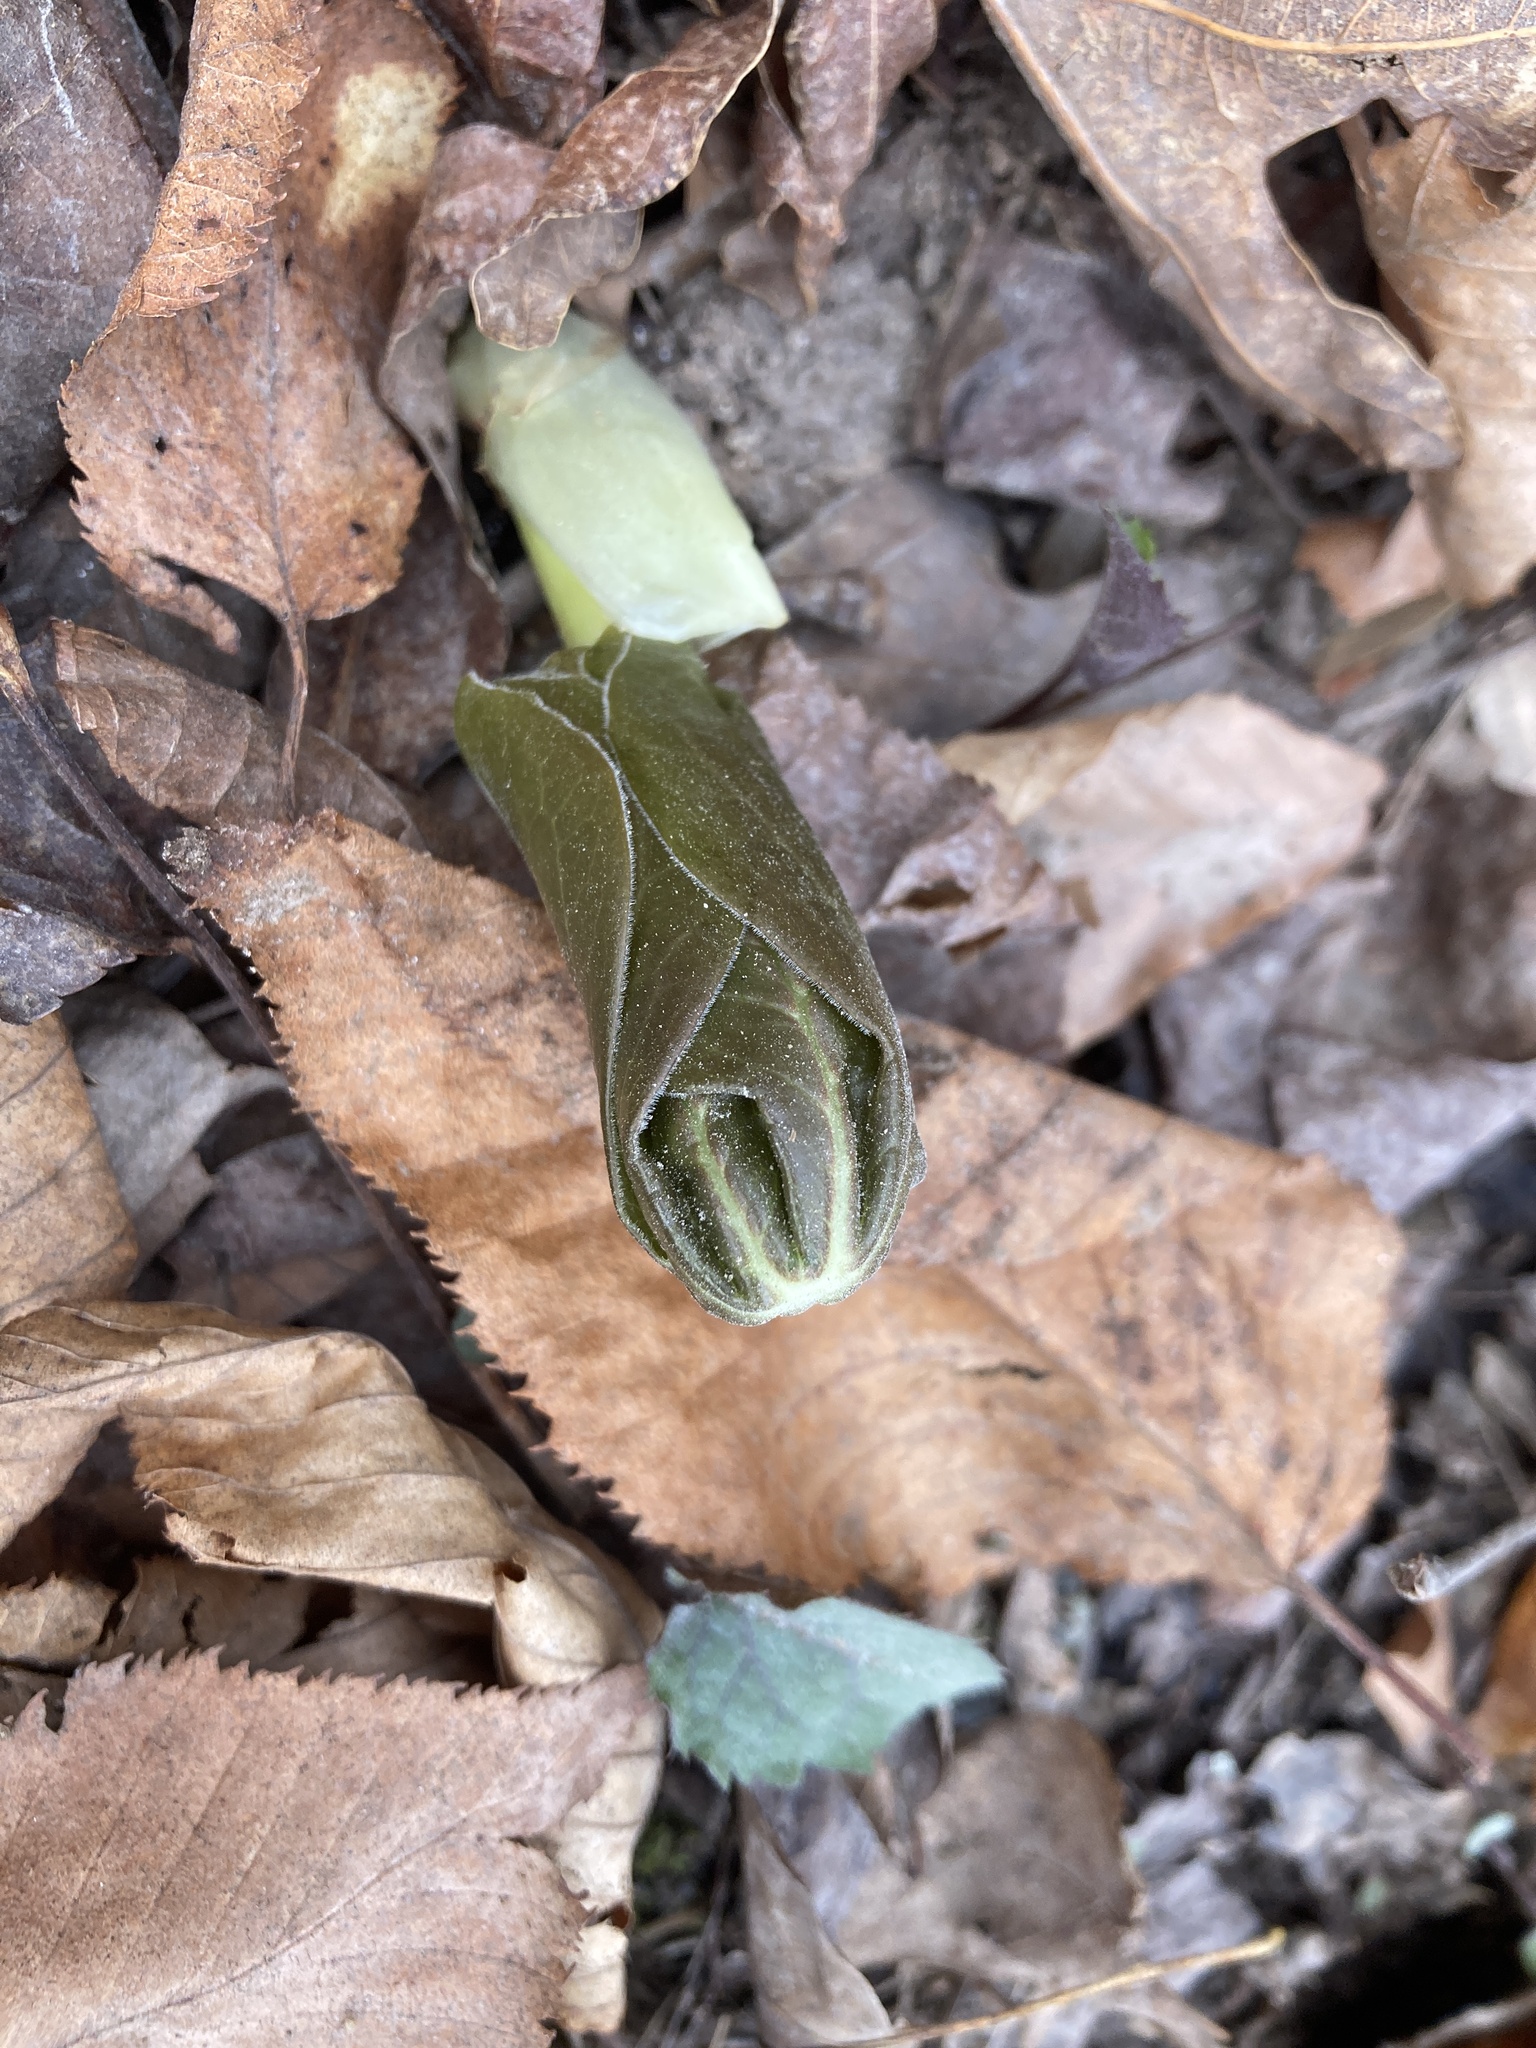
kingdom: Plantae
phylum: Tracheophyta
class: Magnoliopsida
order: Ranunculales
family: Berberidaceae
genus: Podophyllum
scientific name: Podophyllum peltatum
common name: Wild mandrake
